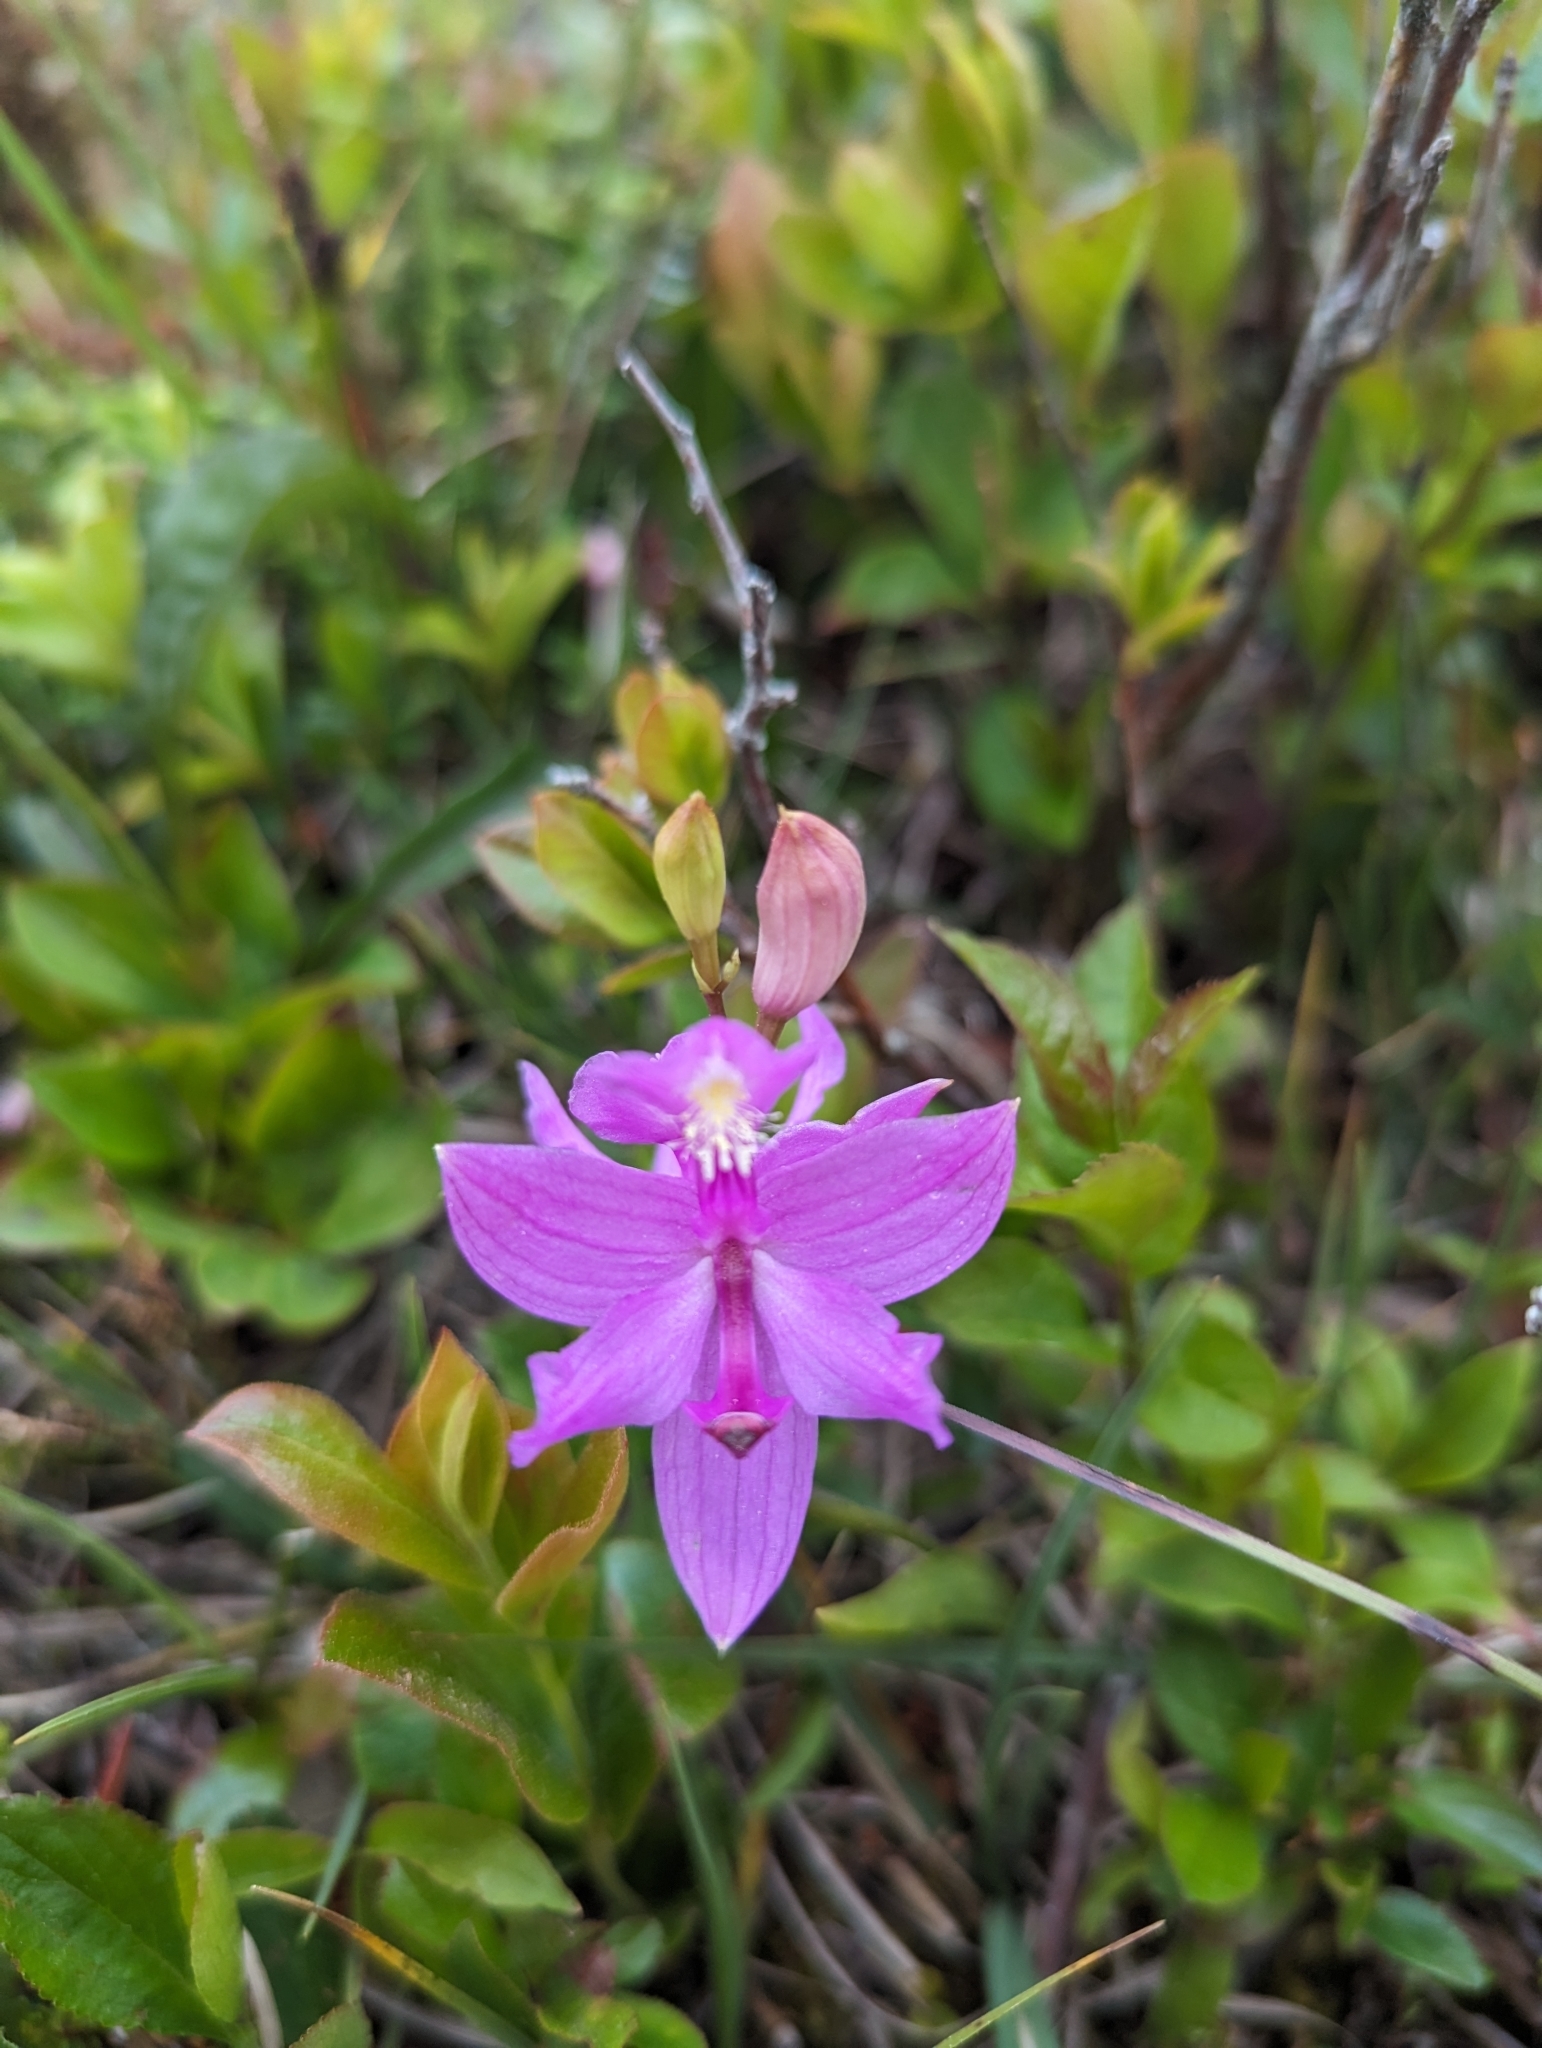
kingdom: Plantae
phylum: Tracheophyta
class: Liliopsida
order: Asparagales
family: Orchidaceae
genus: Calopogon
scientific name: Calopogon tuberosus
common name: Grass-pink
